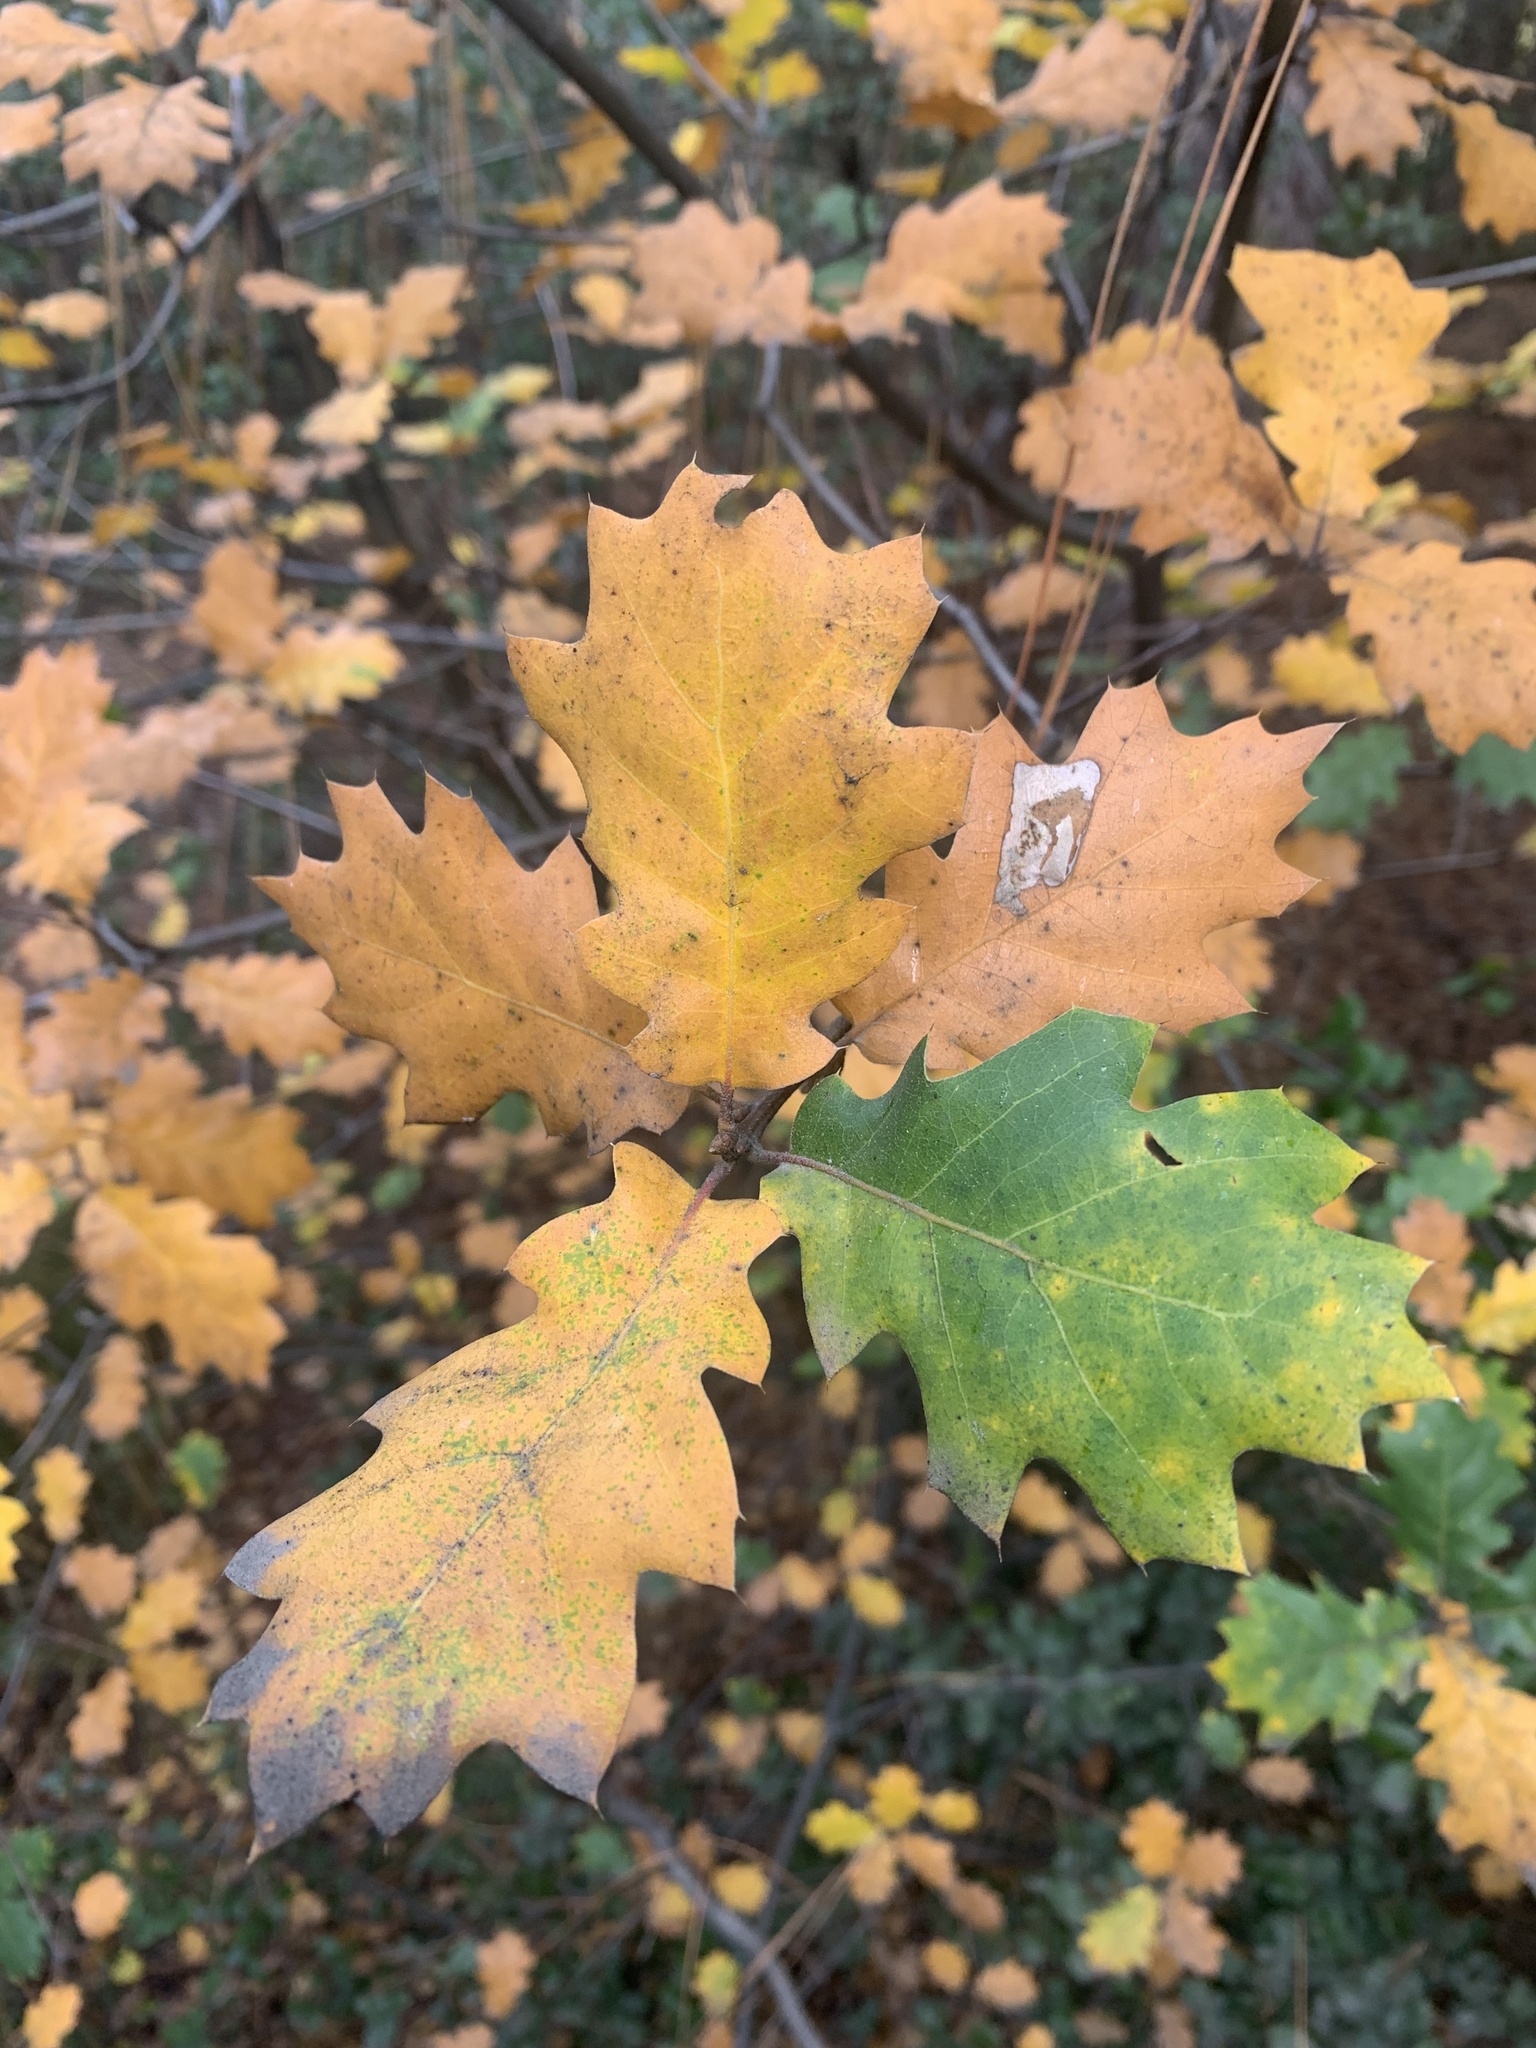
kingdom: Plantae
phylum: Tracheophyta
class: Magnoliopsida
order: Fagales
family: Fagaceae
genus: Quercus
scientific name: Quercus morehus
